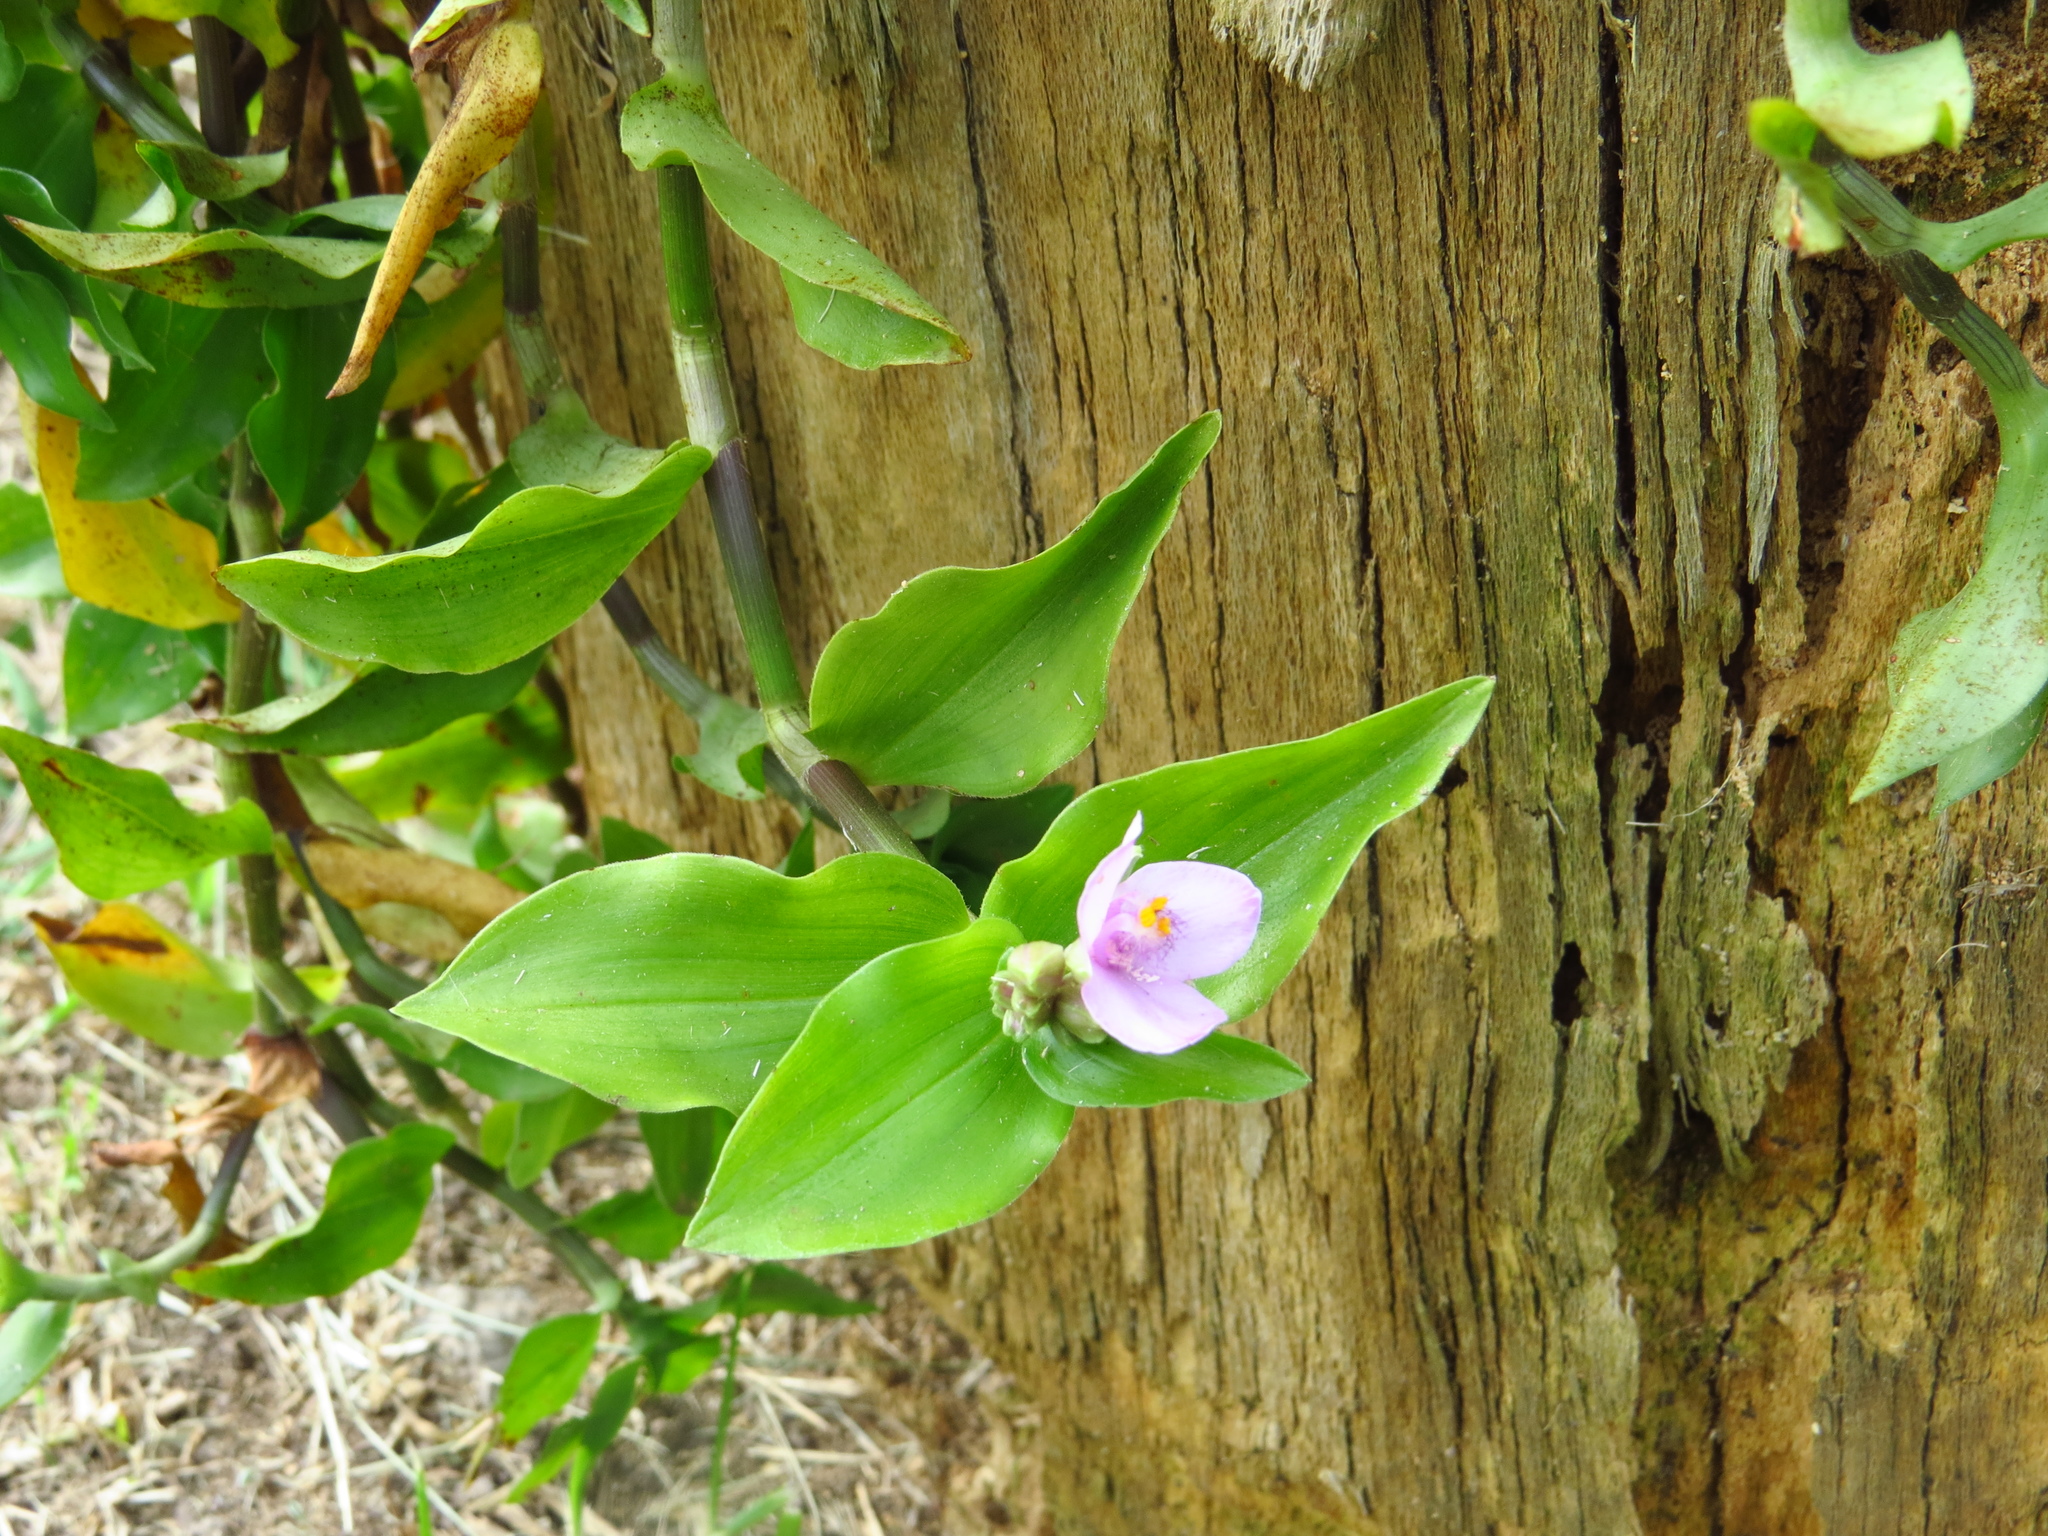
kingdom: Plantae
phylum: Tracheophyta
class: Liliopsida
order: Commelinales
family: Commelinaceae
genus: Callisia
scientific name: Callisia diuretica
